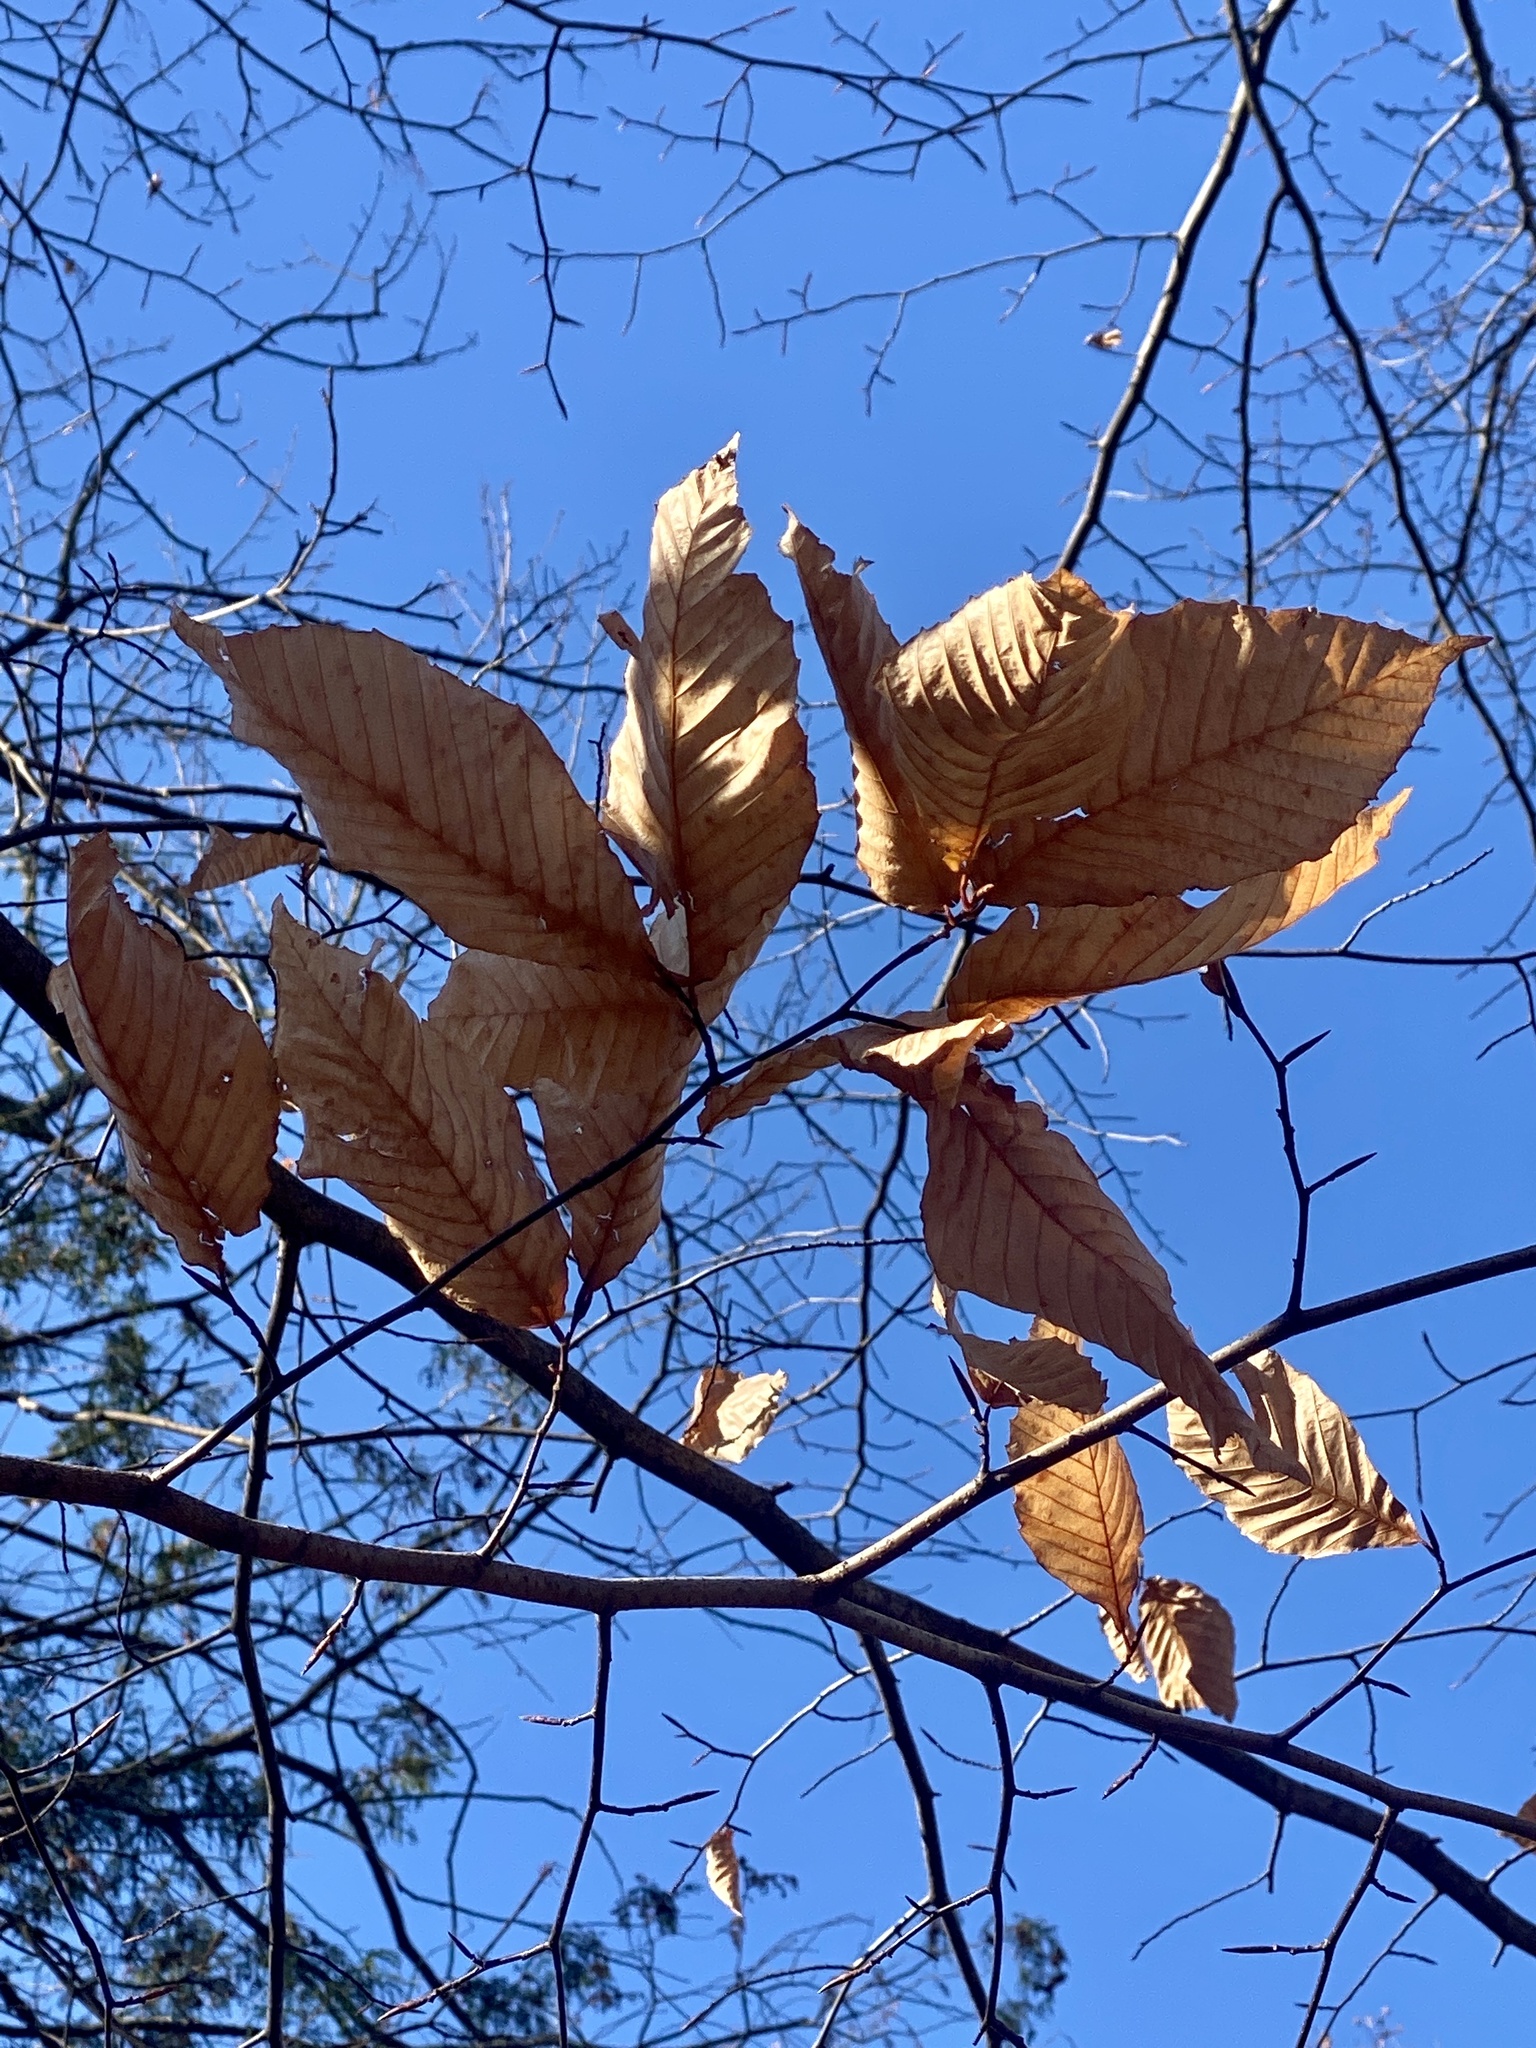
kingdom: Plantae
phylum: Tracheophyta
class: Magnoliopsida
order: Fagales
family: Fagaceae
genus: Fagus
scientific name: Fagus grandifolia
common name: American beech
